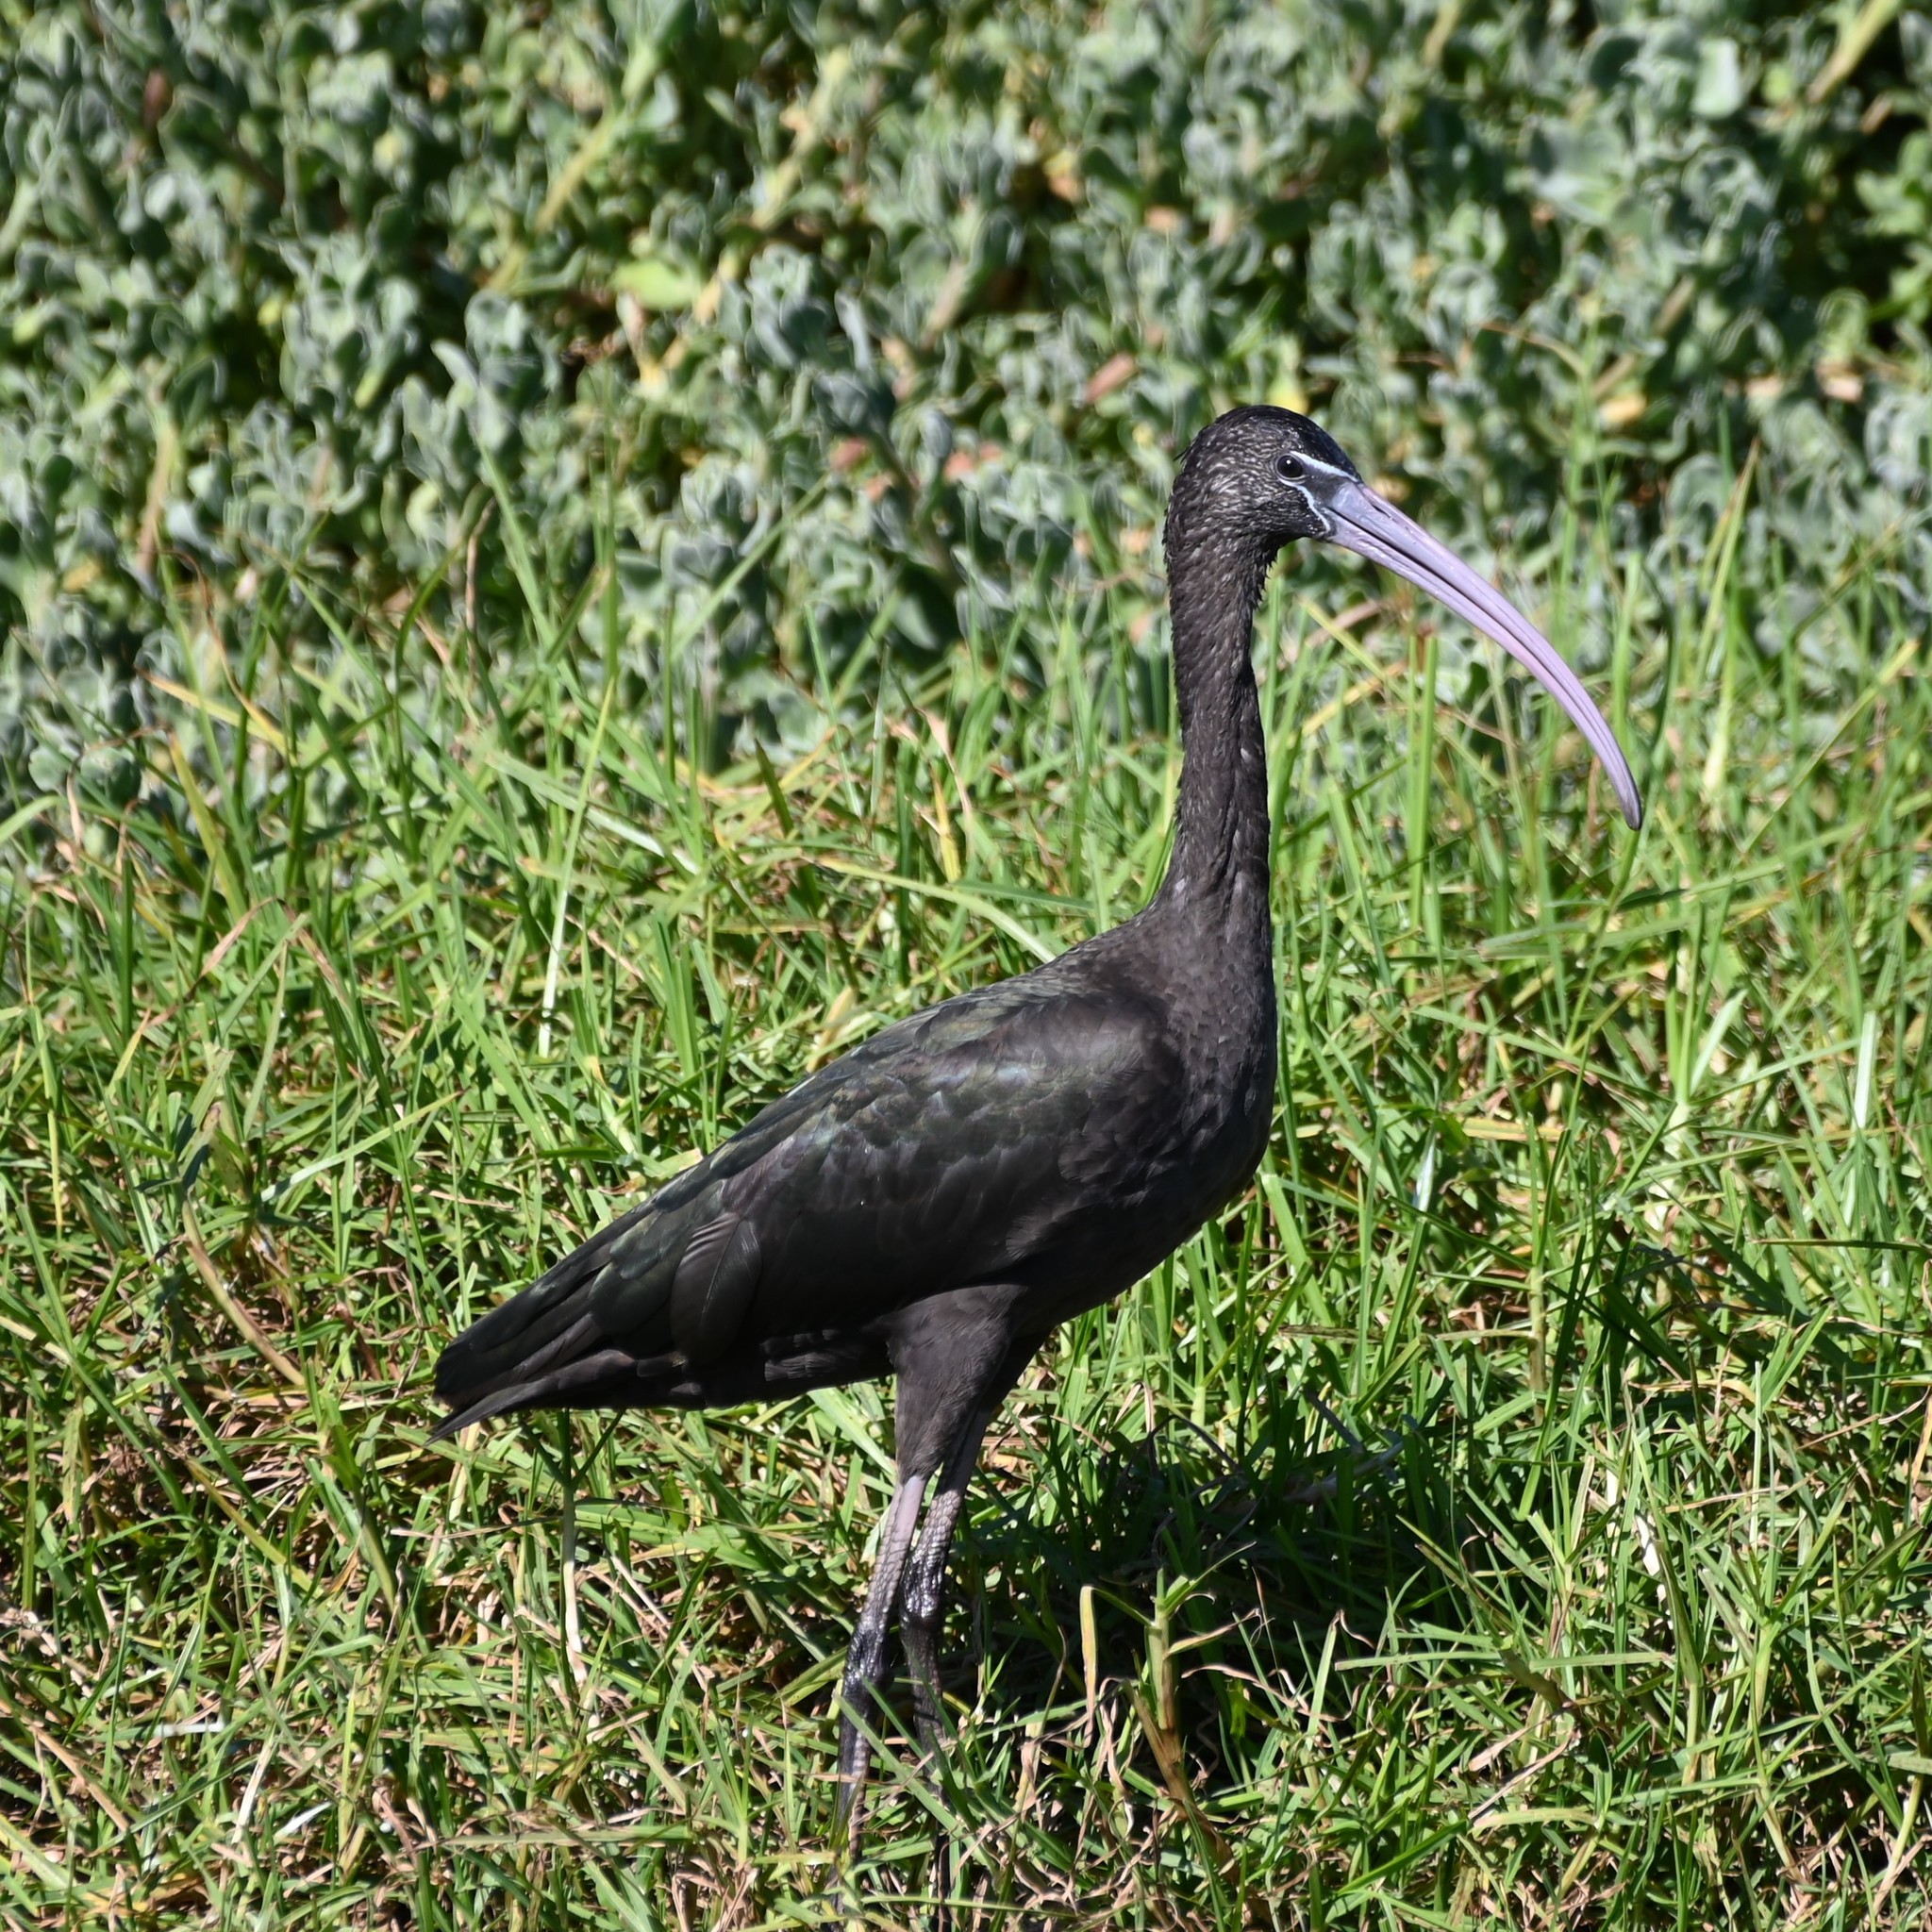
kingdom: Animalia
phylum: Chordata
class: Aves
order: Pelecaniformes
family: Threskiornithidae
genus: Plegadis
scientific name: Plegadis falcinellus
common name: Glossy ibis
